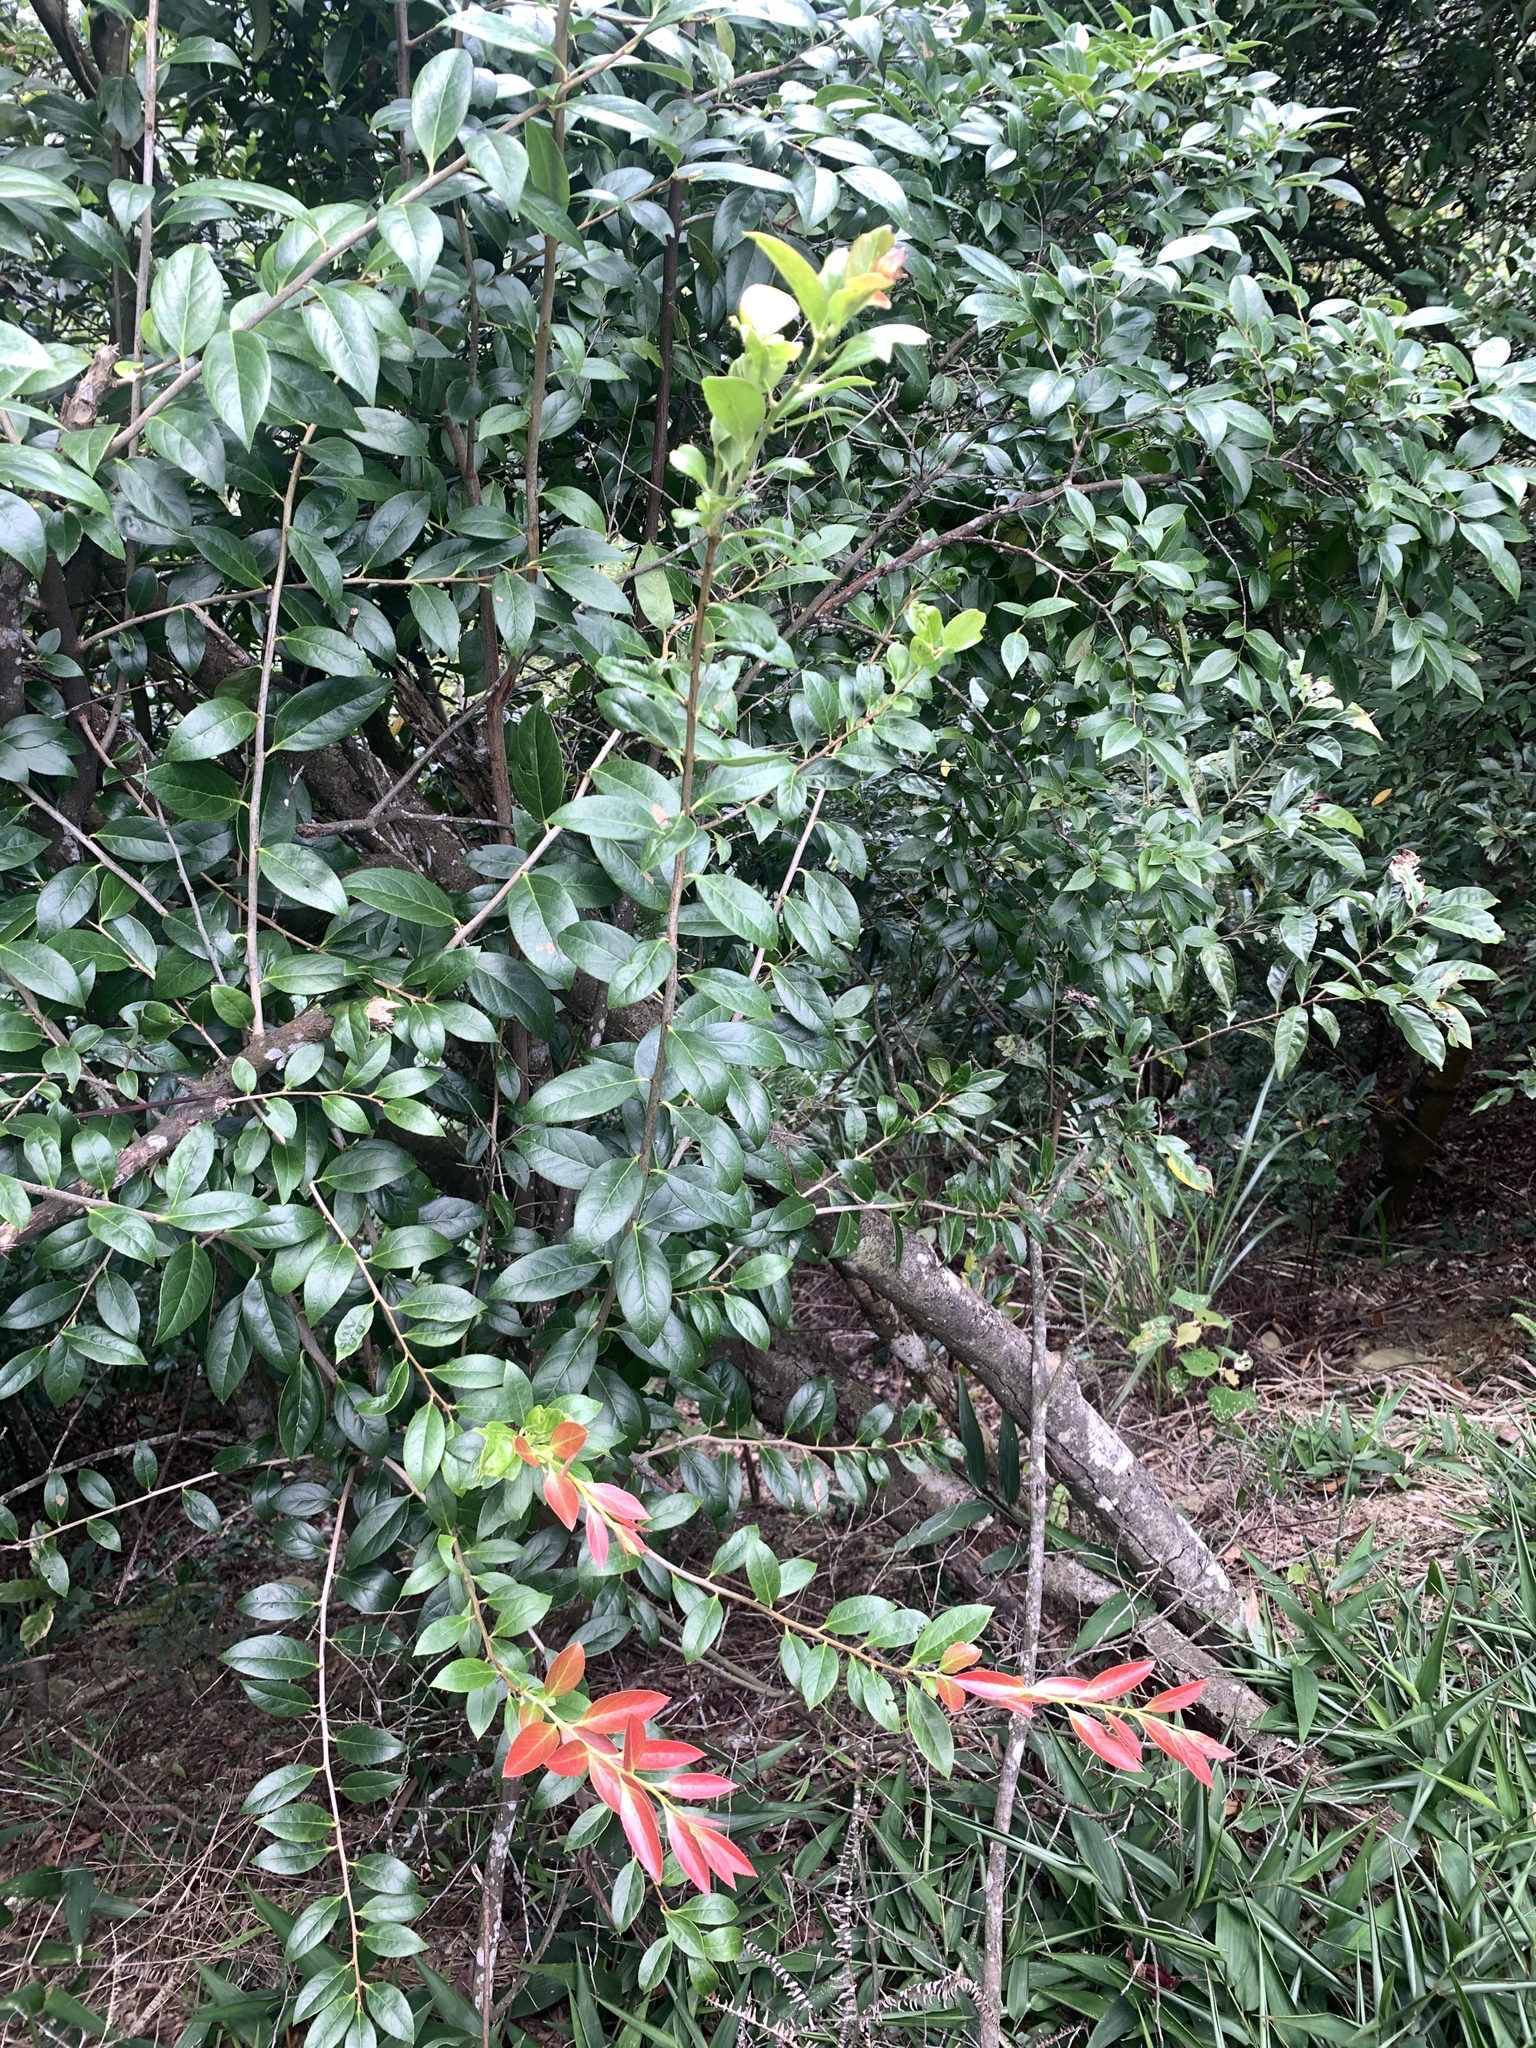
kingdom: Plantae
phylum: Tracheophyta
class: Magnoliopsida
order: Ericales
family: Ericaceae
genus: Vaccinium
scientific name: Vaccinium bracteatum
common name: Sea bilberry
